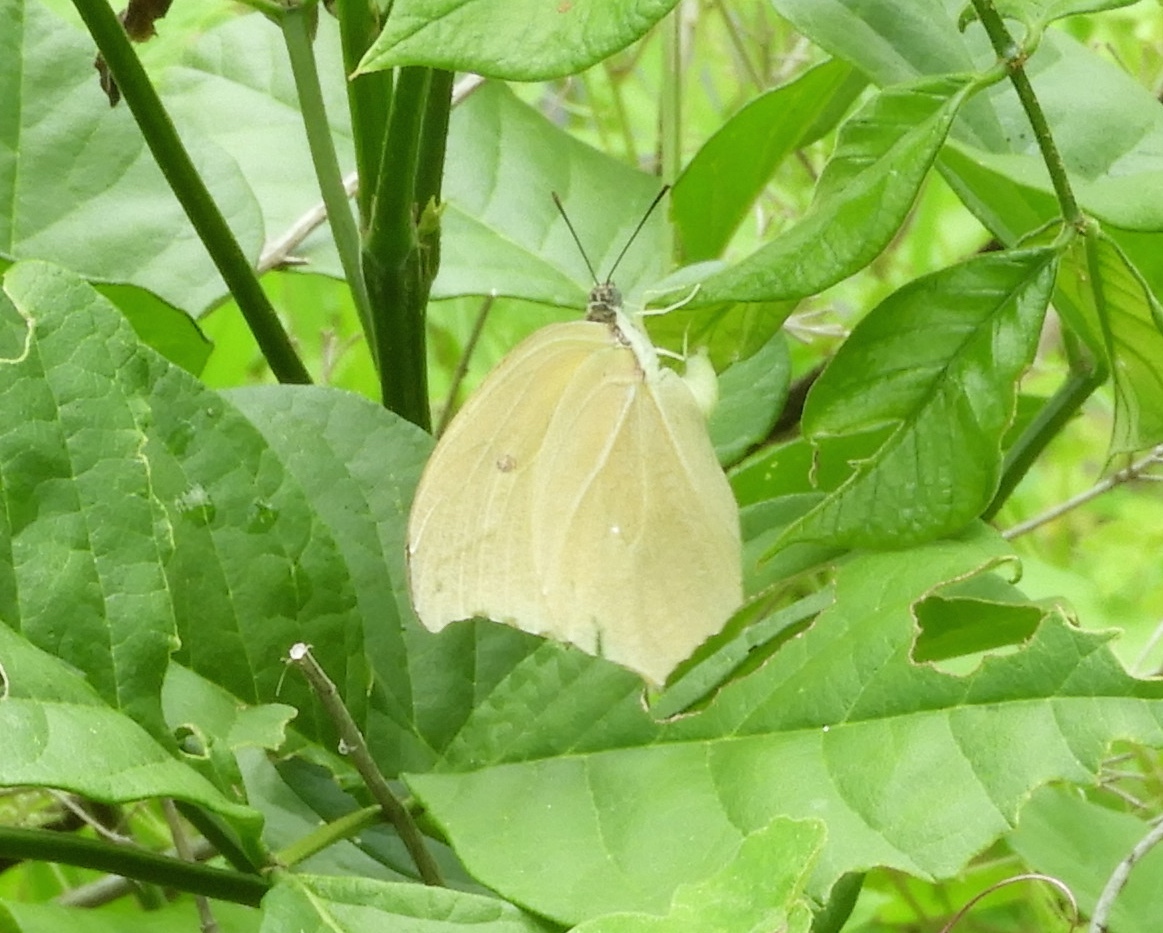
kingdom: Animalia
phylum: Arthropoda
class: Insecta
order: Lepidoptera
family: Pieridae
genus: Anteos
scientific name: Anteos maerula
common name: Angled sulphur
